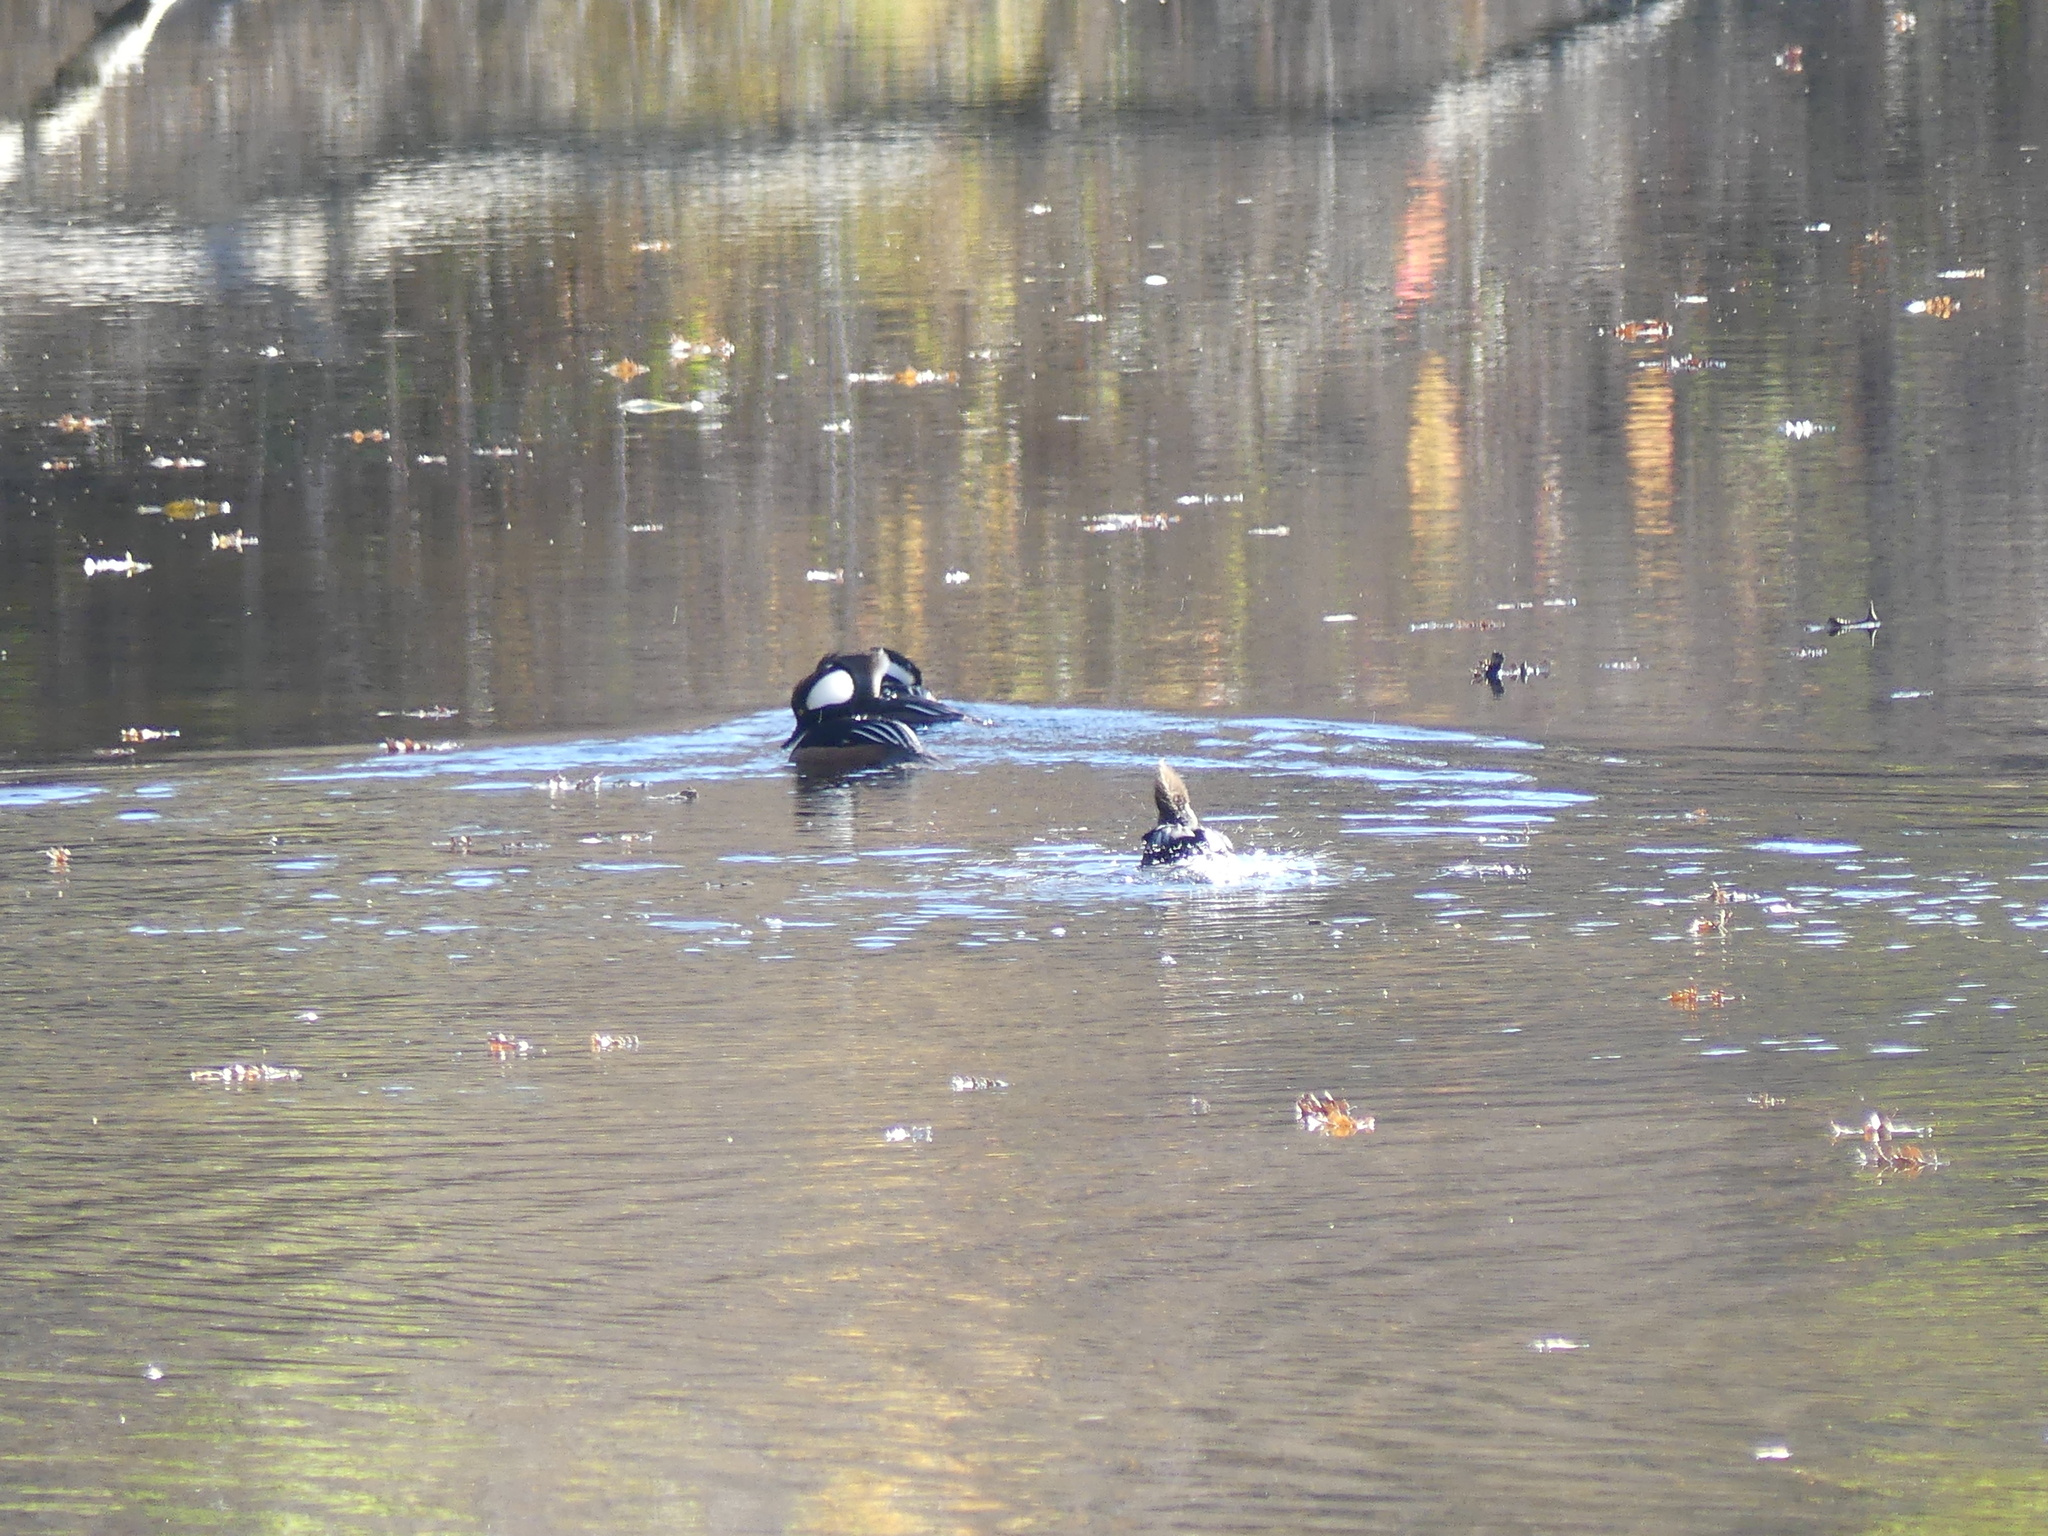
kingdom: Animalia
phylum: Chordata
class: Aves
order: Anseriformes
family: Anatidae
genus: Lophodytes
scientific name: Lophodytes cucullatus
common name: Hooded merganser
